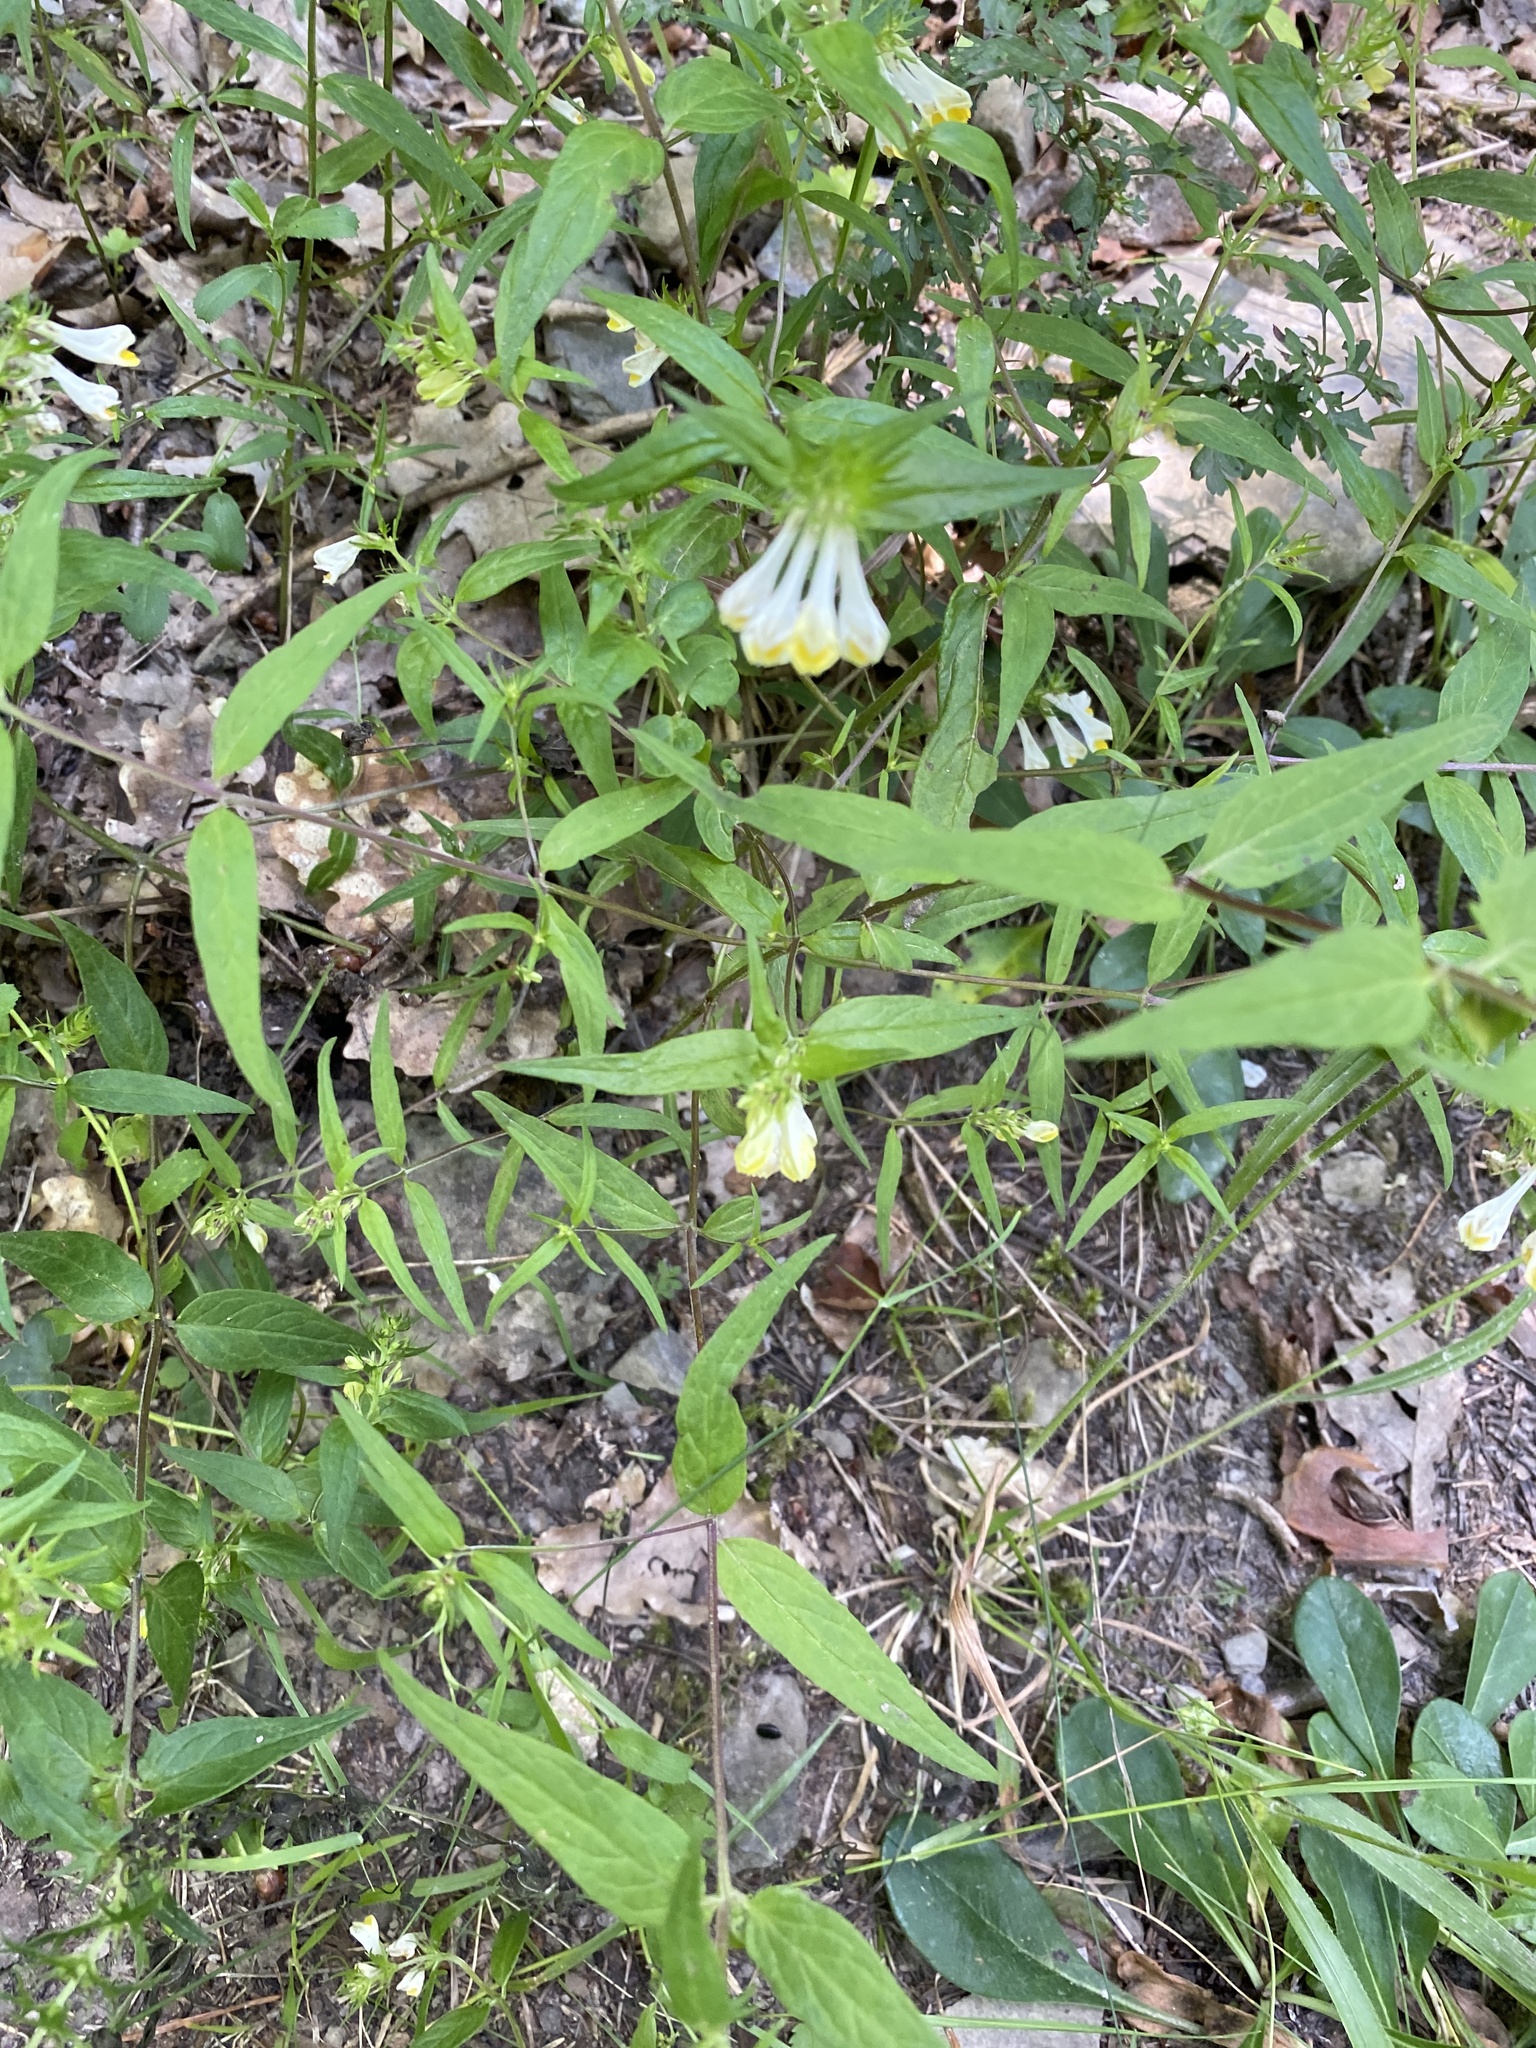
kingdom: Plantae
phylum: Tracheophyta
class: Magnoliopsida
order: Lamiales
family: Orobanchaceae
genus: Melampyrum
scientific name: Melampyrum pratense
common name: Common cow-wheat
